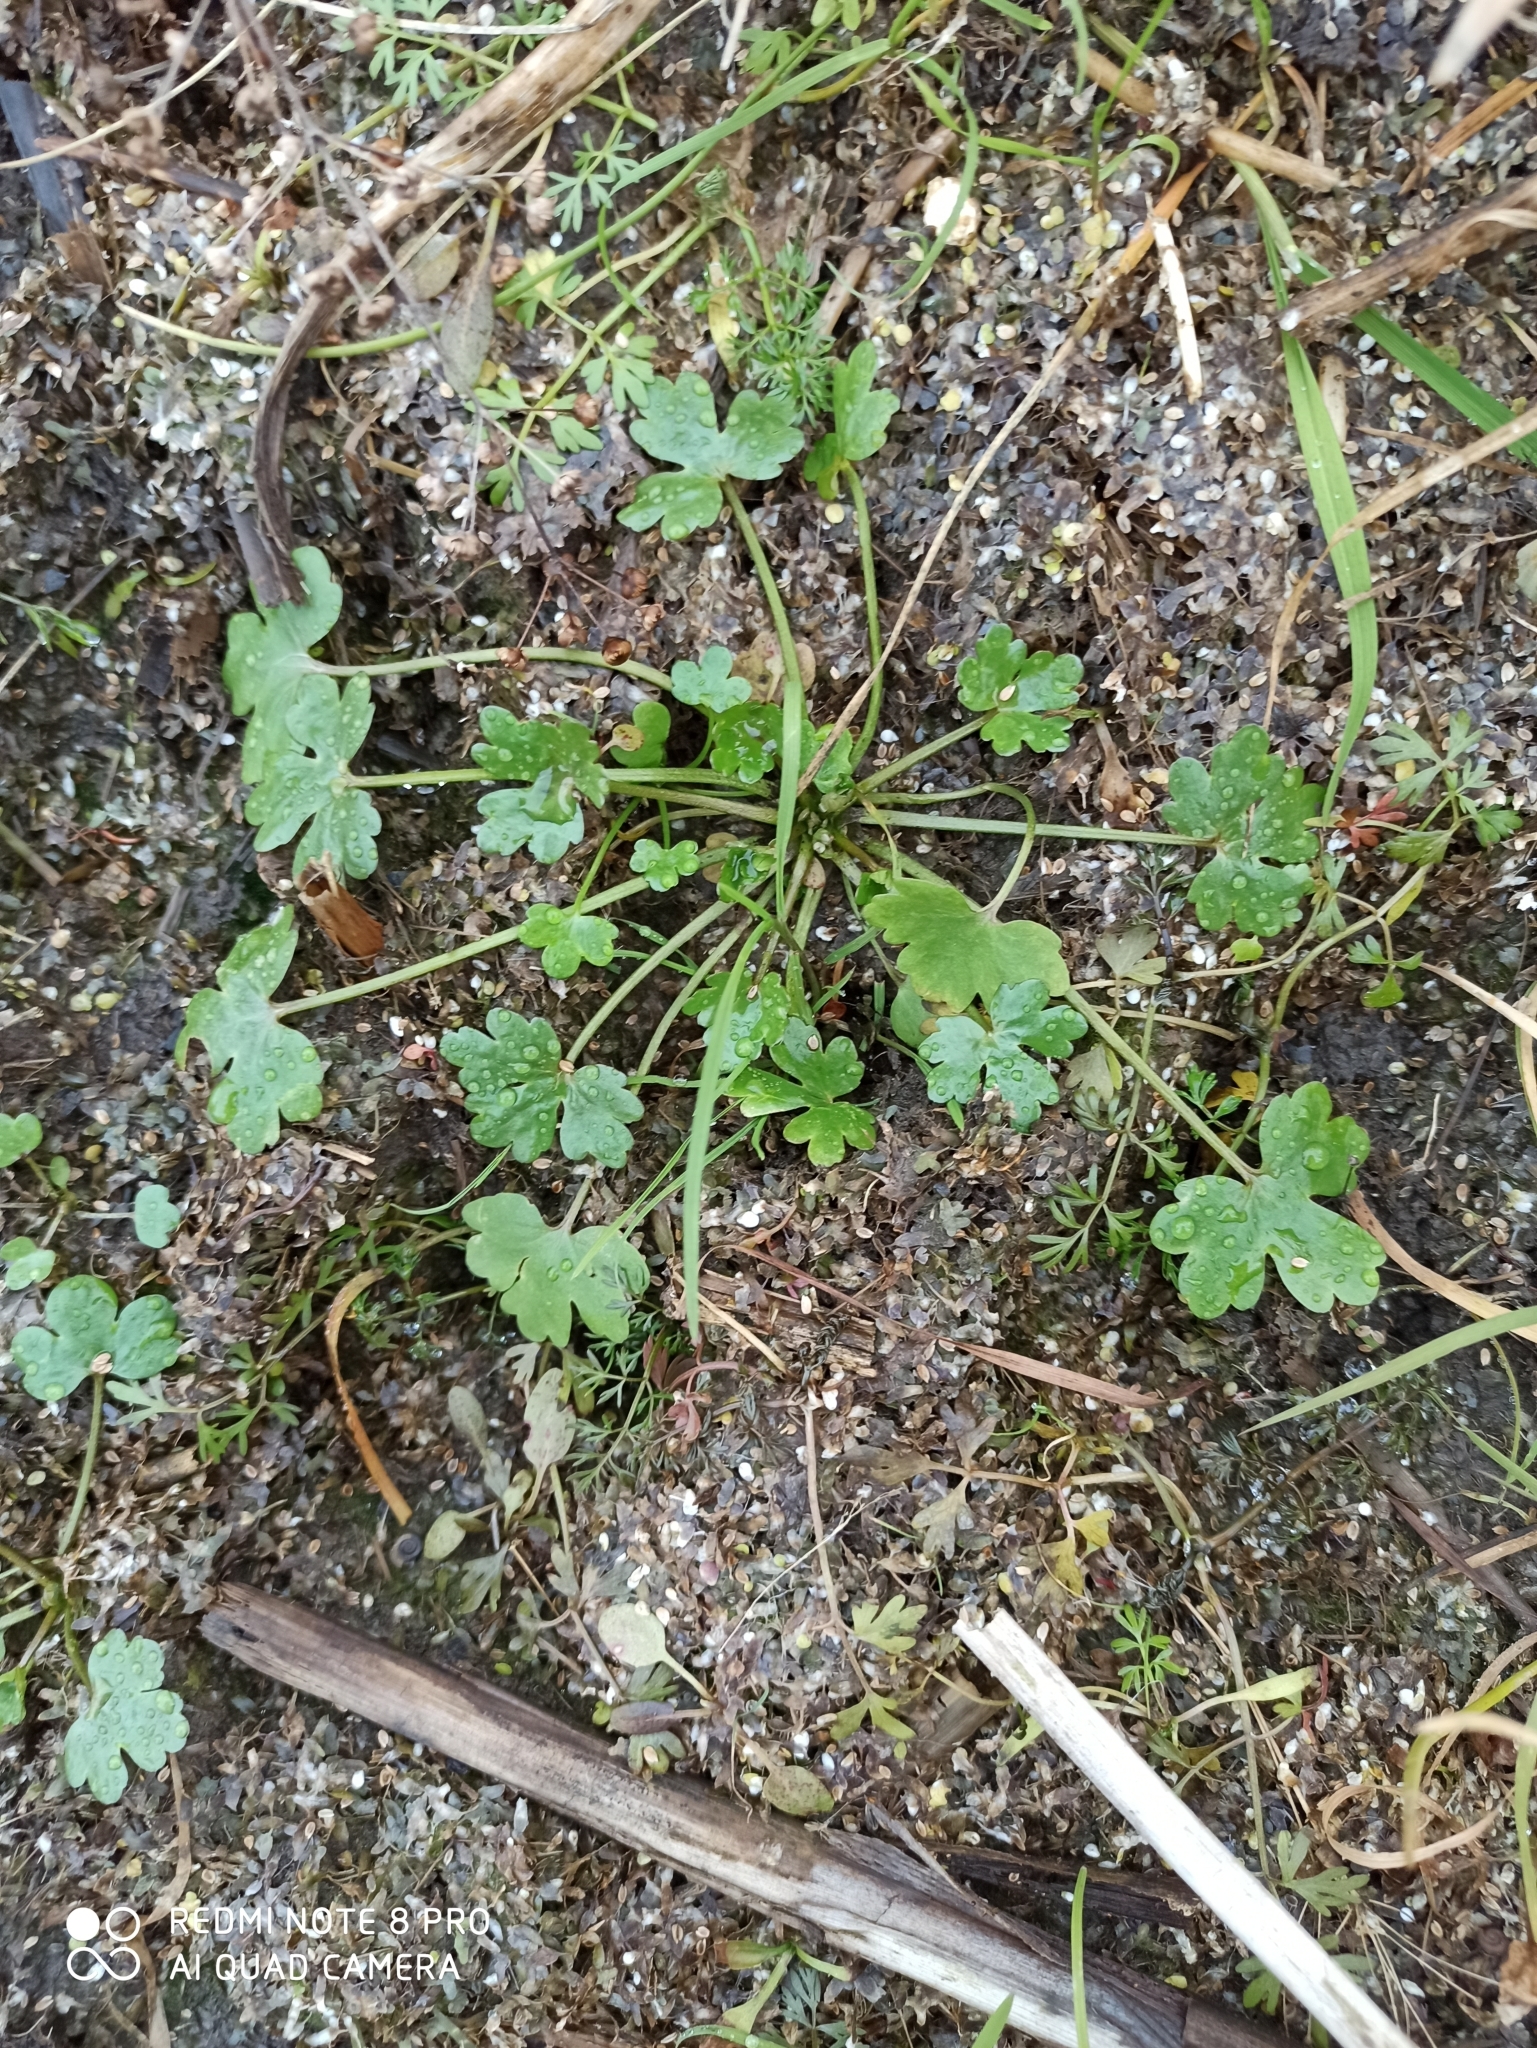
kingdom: Plantae
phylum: Tracheophyta
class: Magnoliopsida
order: Ranunculales
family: Ranunculaceae
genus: Ranunculus
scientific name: Ranunculus sceleratus
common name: Celery-leaved buttercup
